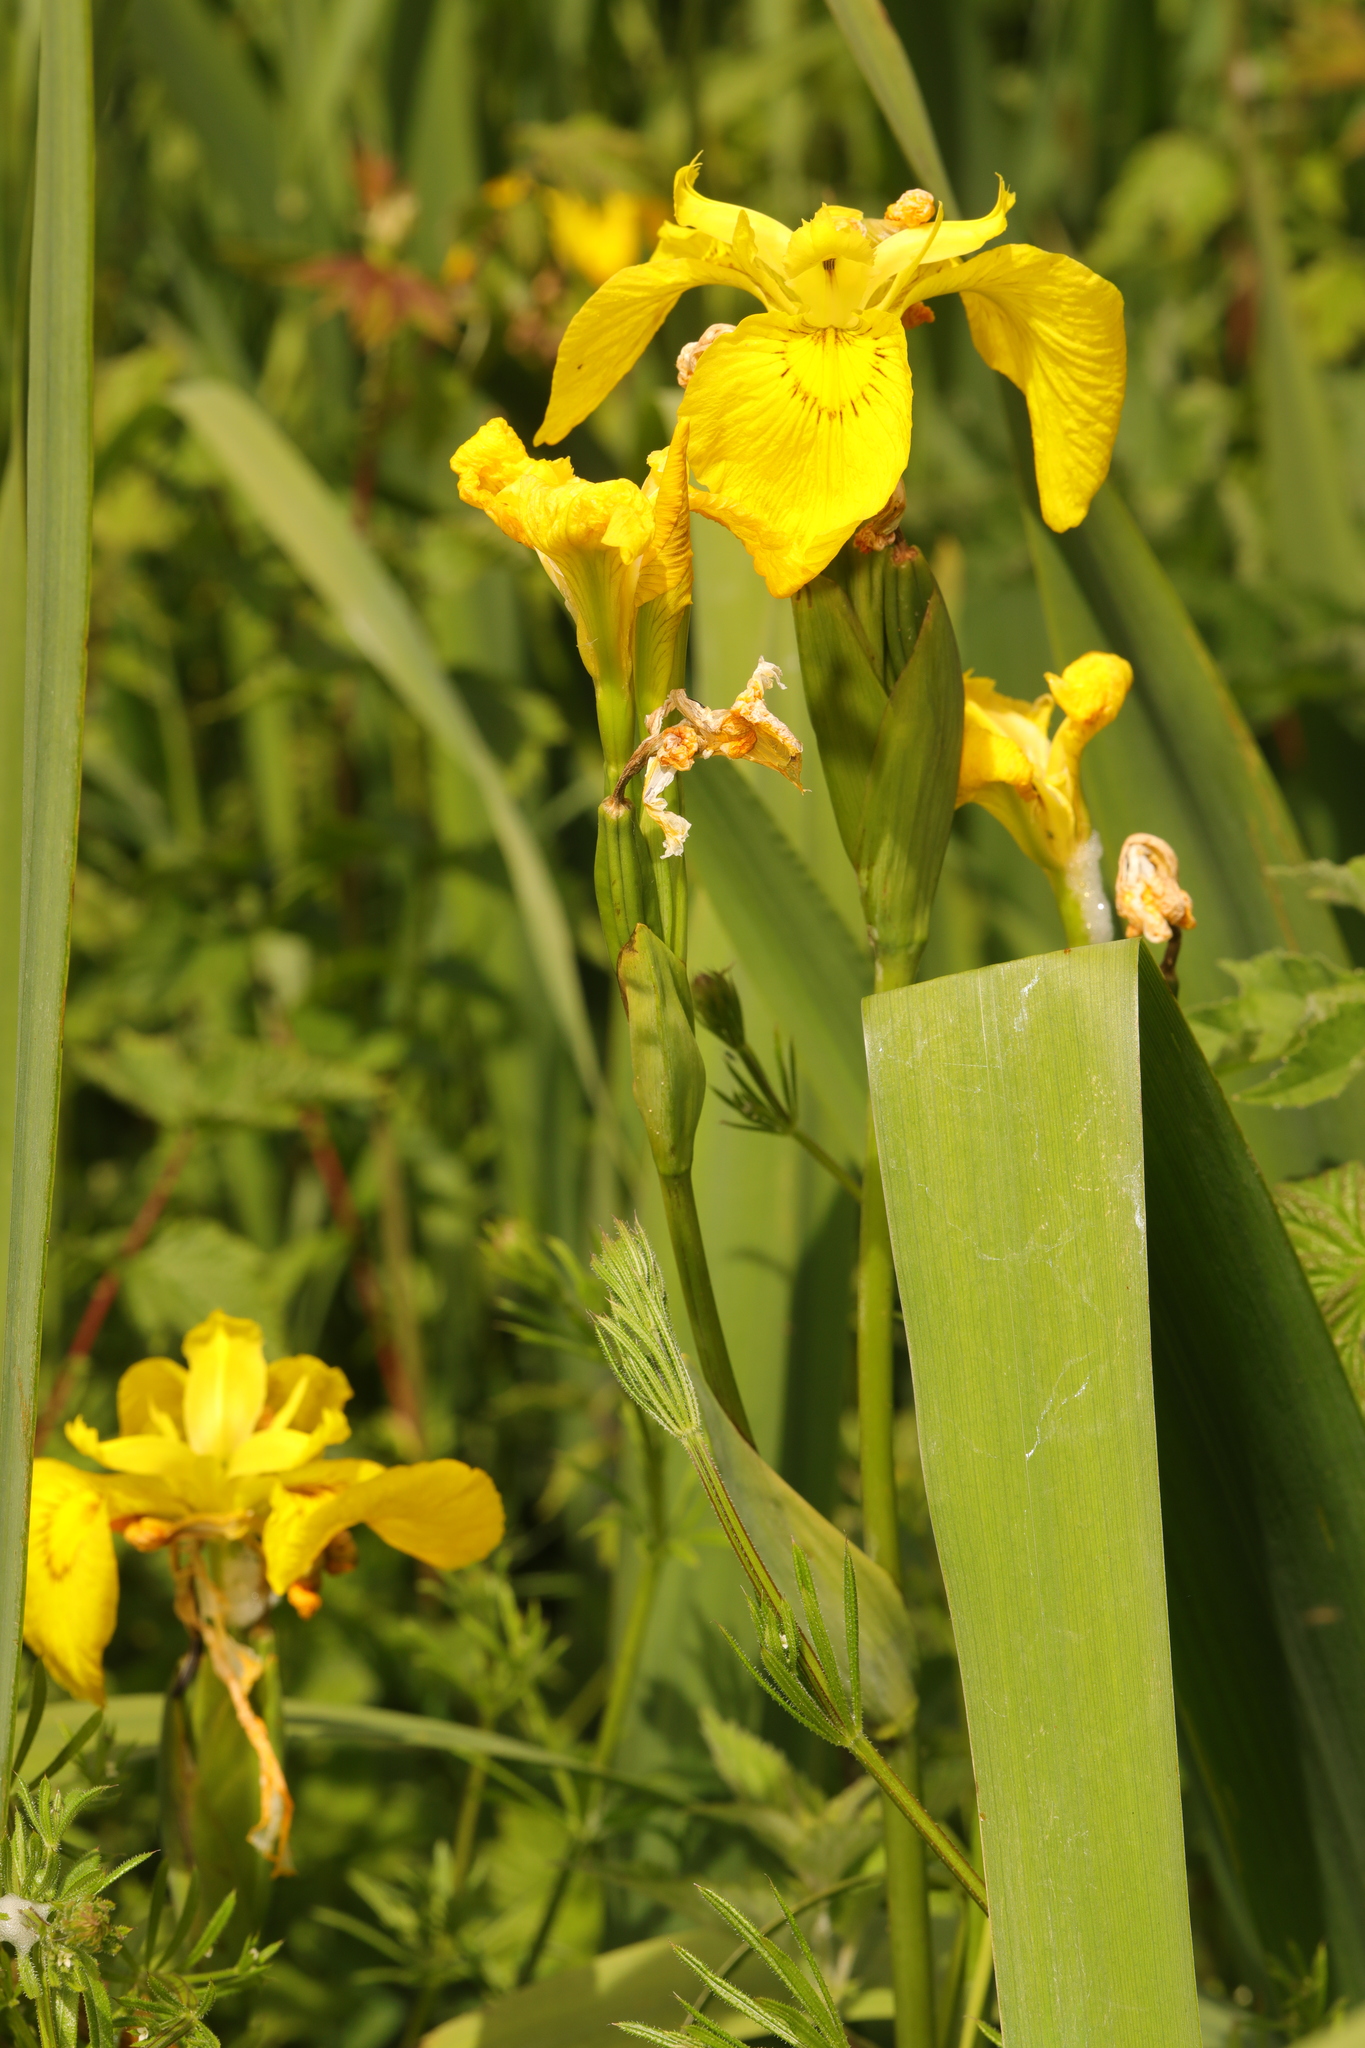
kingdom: Plantae
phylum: Tracheophyta
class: Liliopsida
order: Asparagales
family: Iridaceae
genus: Iris
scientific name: Iris pseudacorus
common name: Yellow flag
